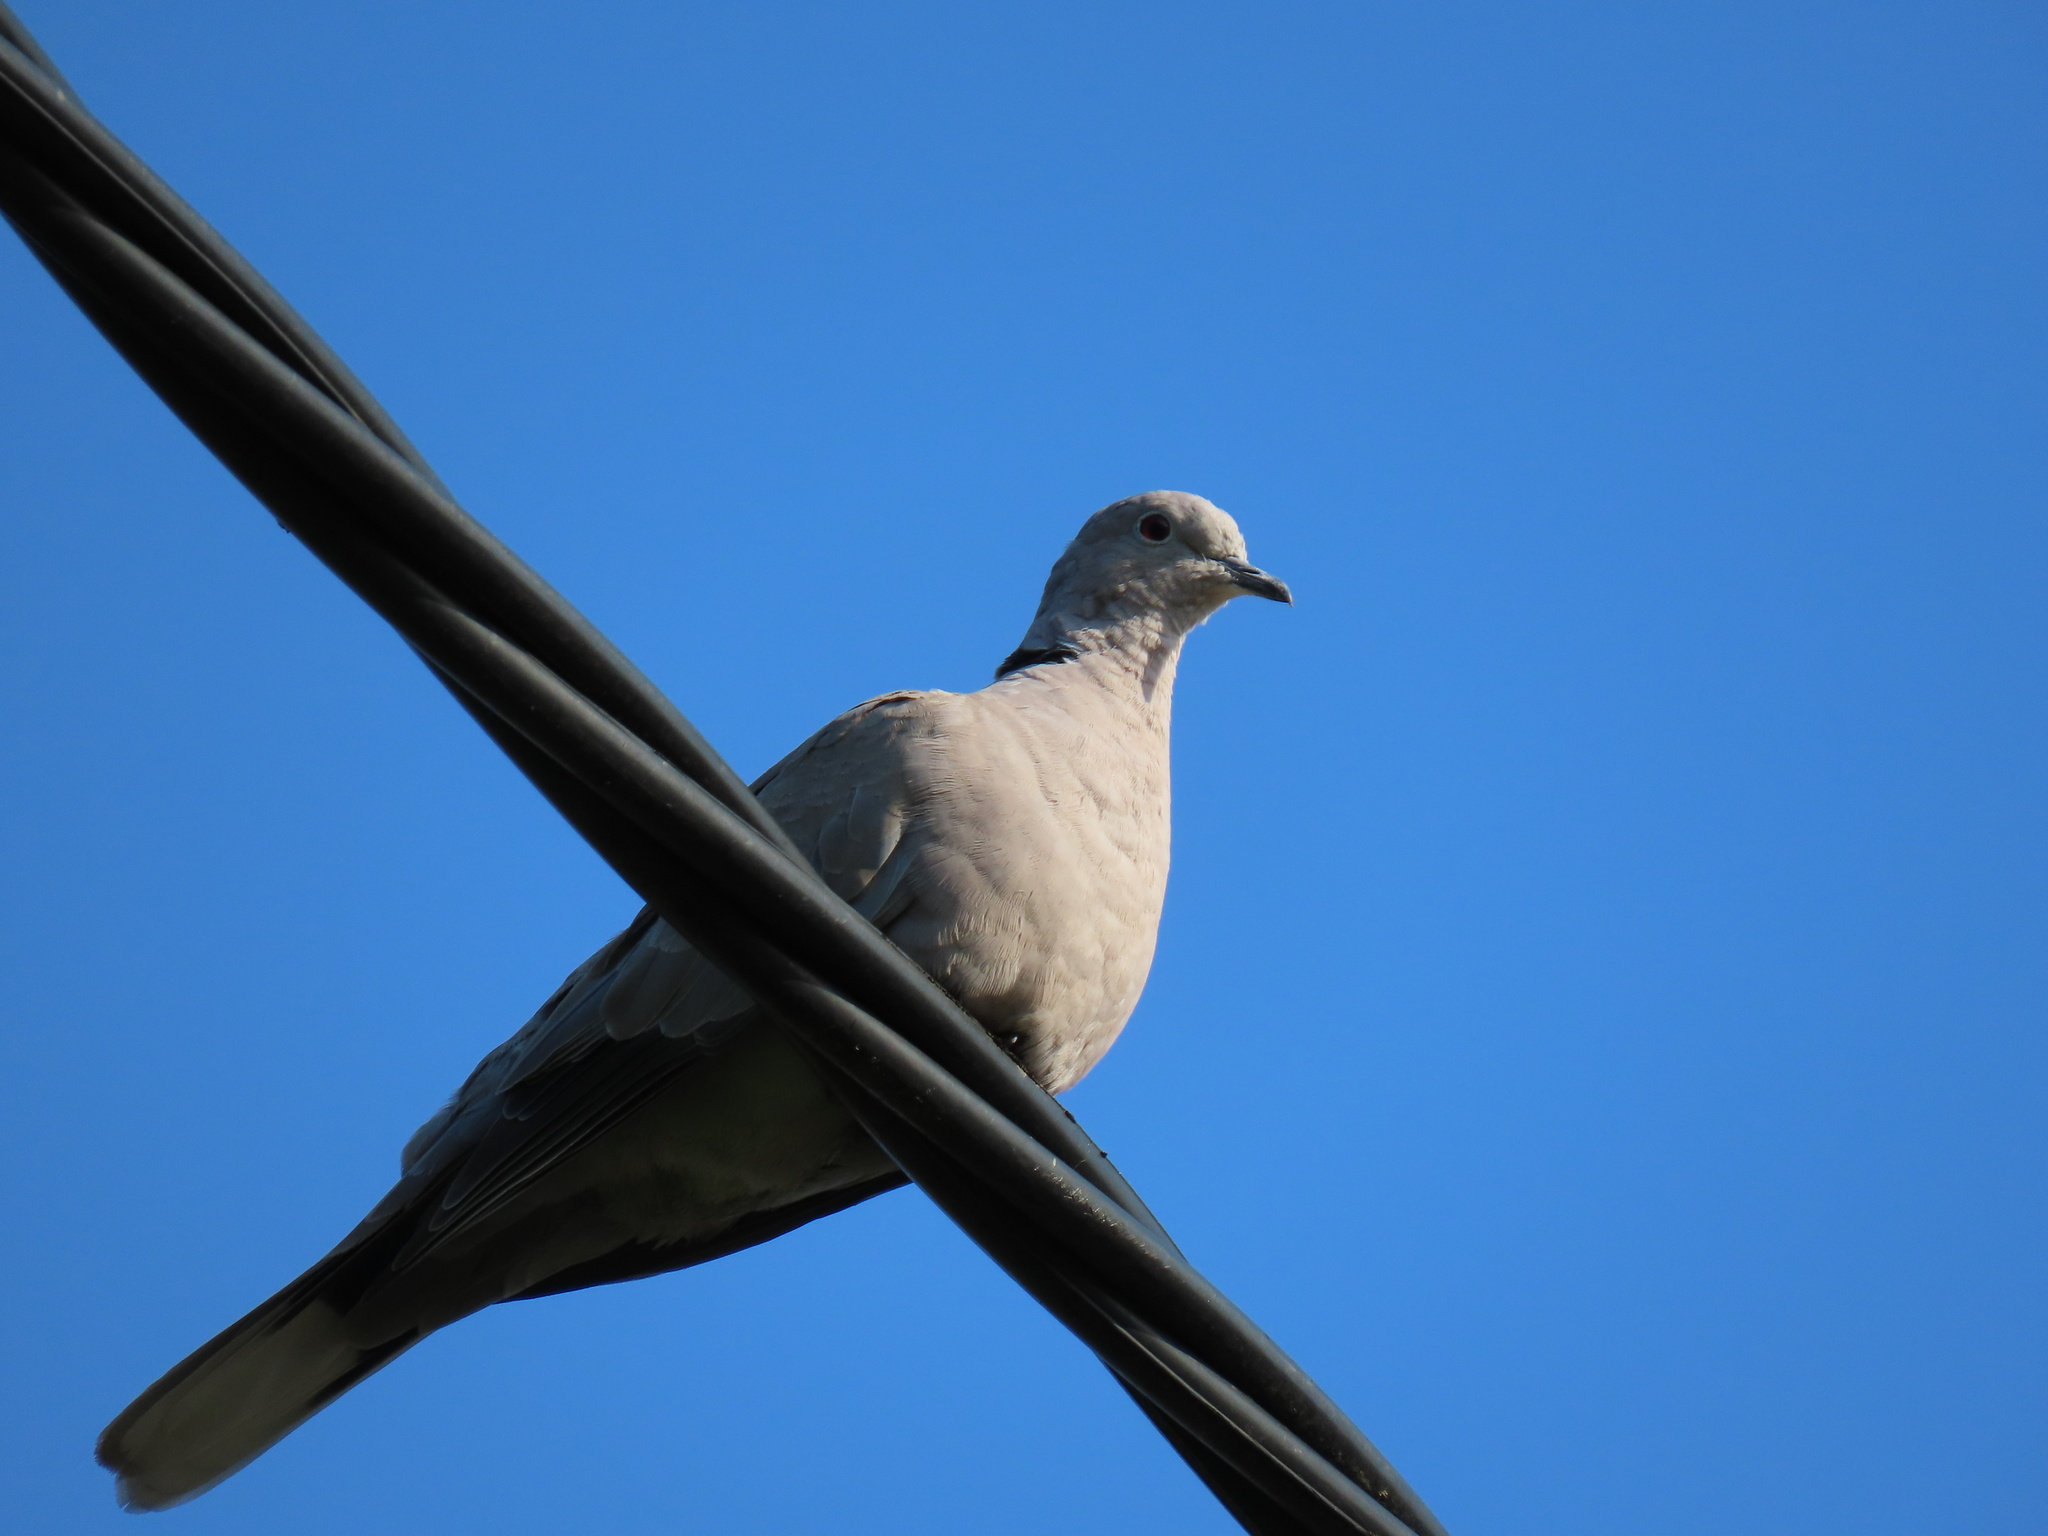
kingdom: Animalia
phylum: Chordata
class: Aves
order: Columbiformes
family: Columbidae
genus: Streptopelia
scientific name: Streptopelia decaocto
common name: Eurasian collared dove
